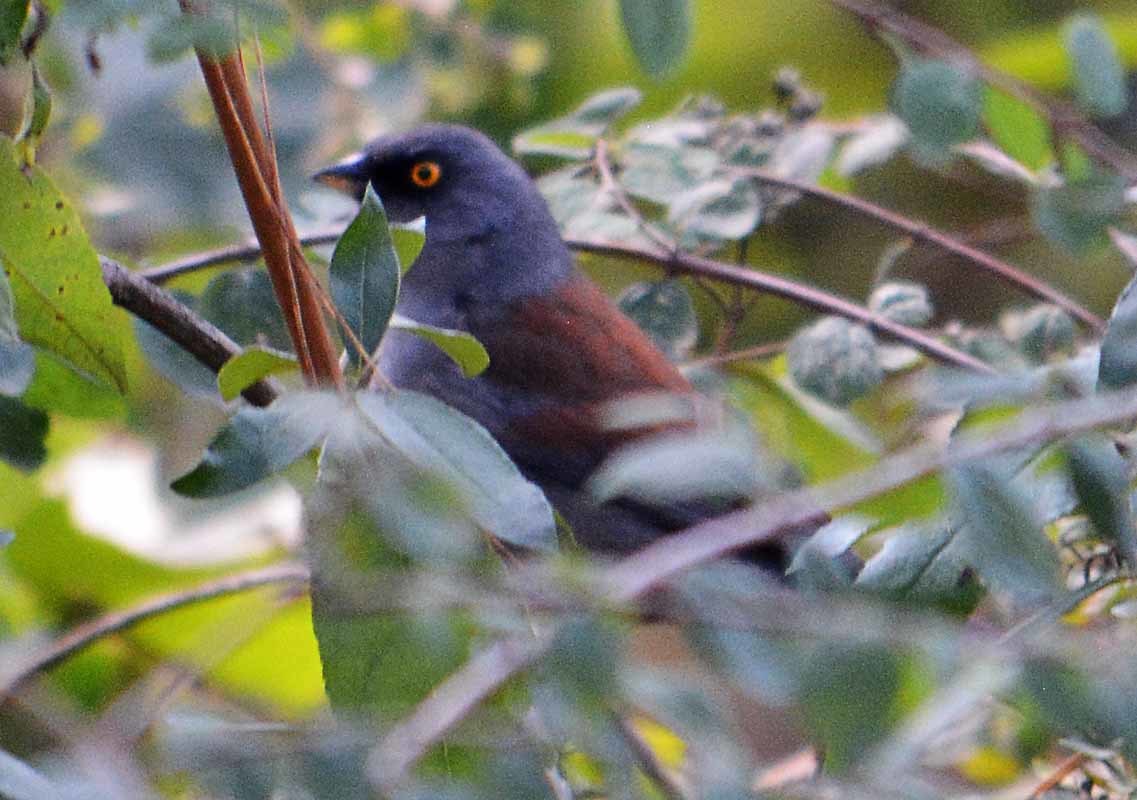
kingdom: Animalia
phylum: Chordata
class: Aves
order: Passeriformes
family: Passerellidae
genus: Junco
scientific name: Junco phaeonotus
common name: Yellow-eyed junco
